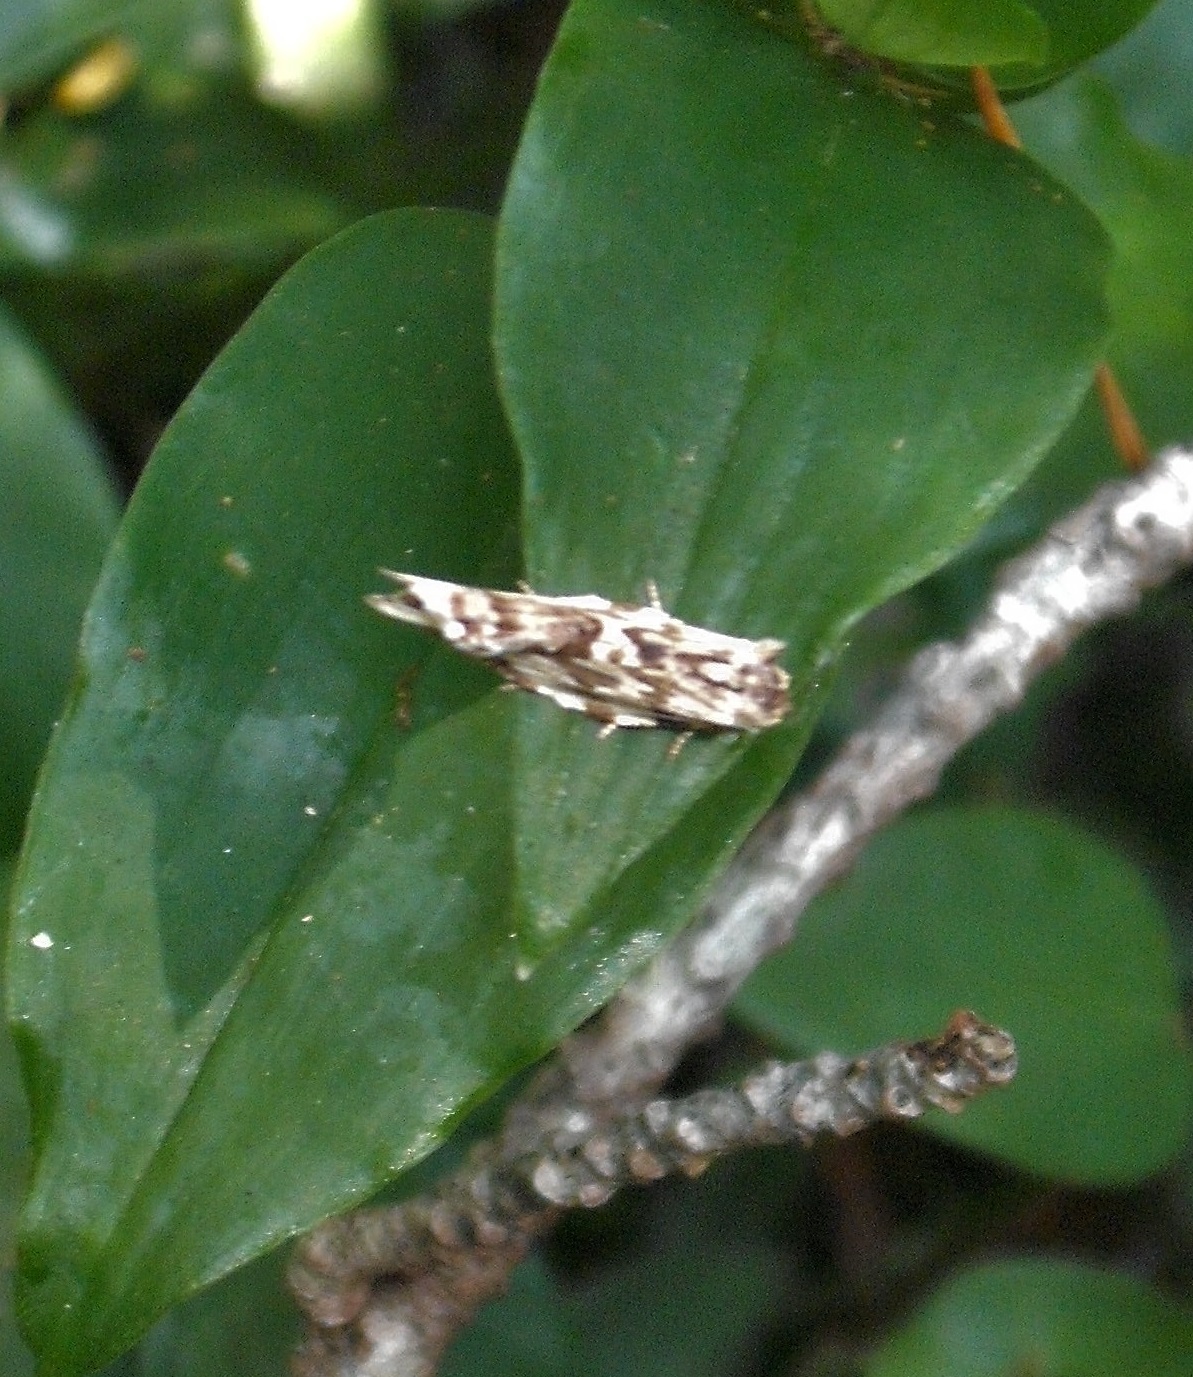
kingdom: Animalia
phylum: Arthropoda
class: Insecta
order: Lepidoptera
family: Tortricidae
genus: Epalxiphora
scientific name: Epalxiphora axenana
